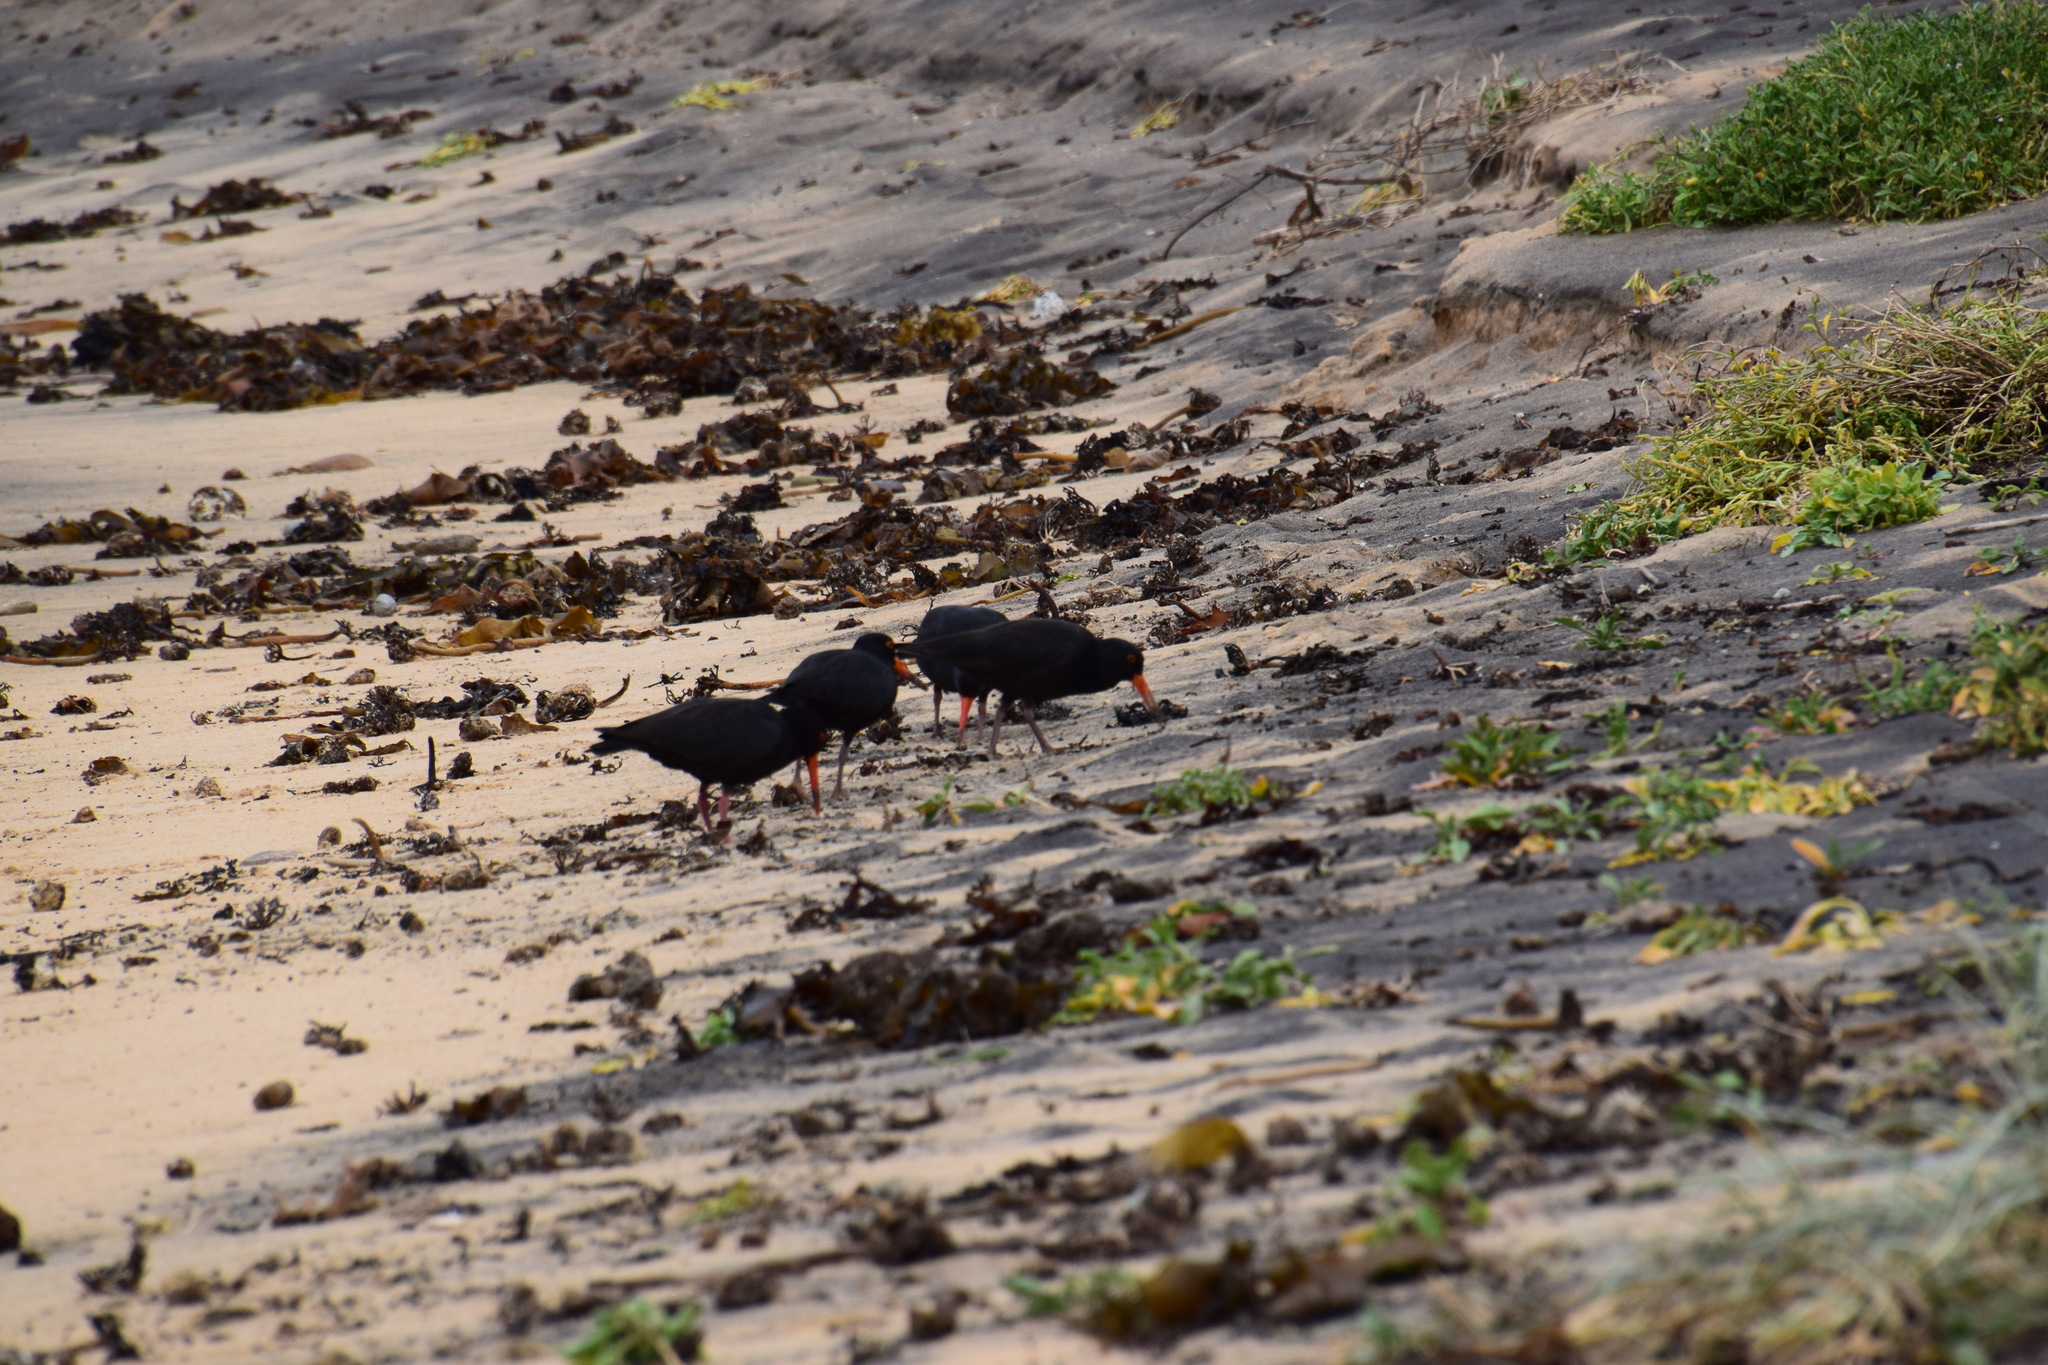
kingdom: Animalia
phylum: Chordata
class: Aves
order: Charadriiformes
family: Haematopodidae
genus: Haematopus
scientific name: Haematopus fuliginosus
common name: Sooty oystercatcher
